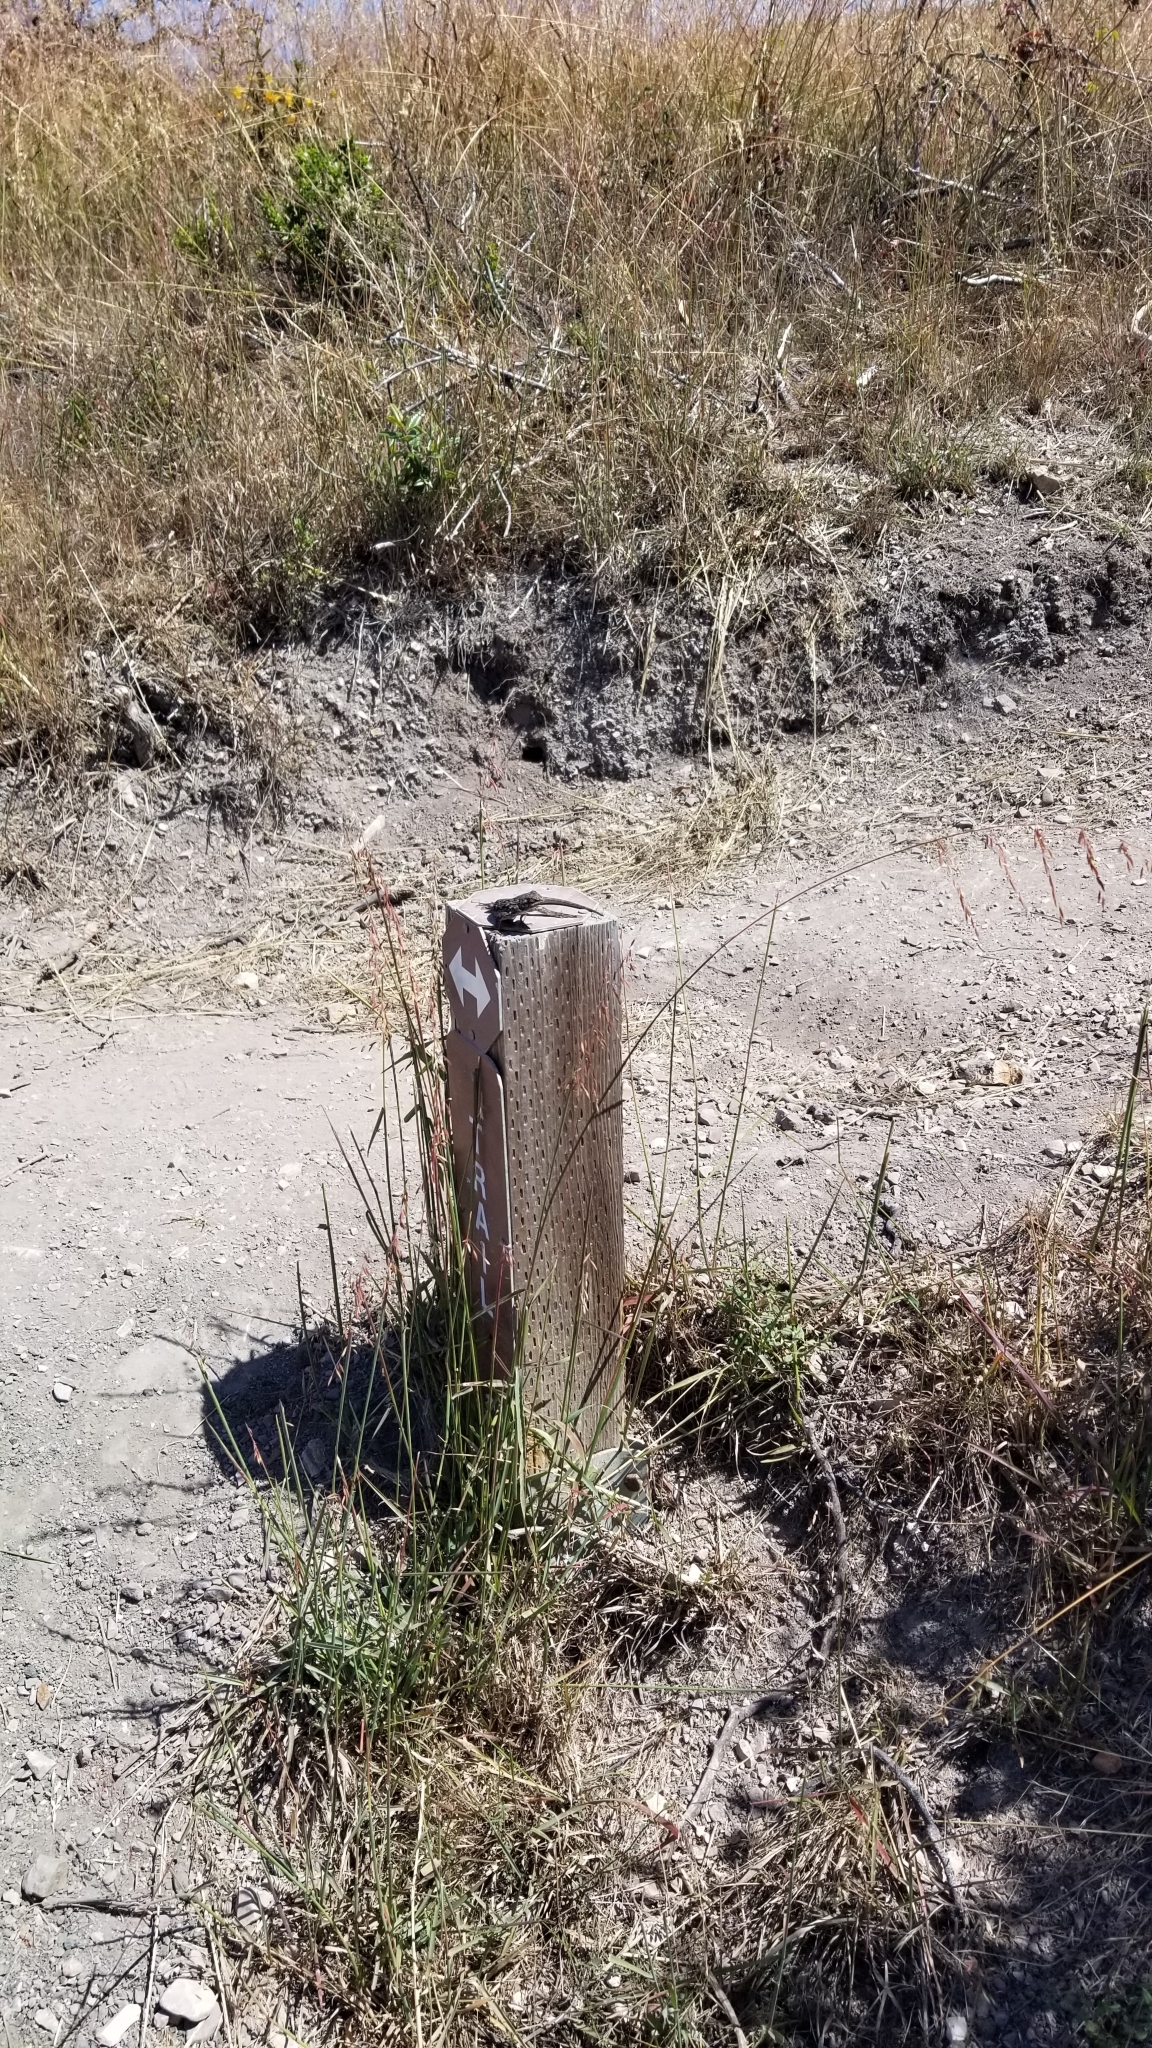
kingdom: Animalia
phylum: Chordata
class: Squamata
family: Phrynosomatidae
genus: Sceloporus
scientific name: Sceloporus occidentalis
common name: Western fence lizard
